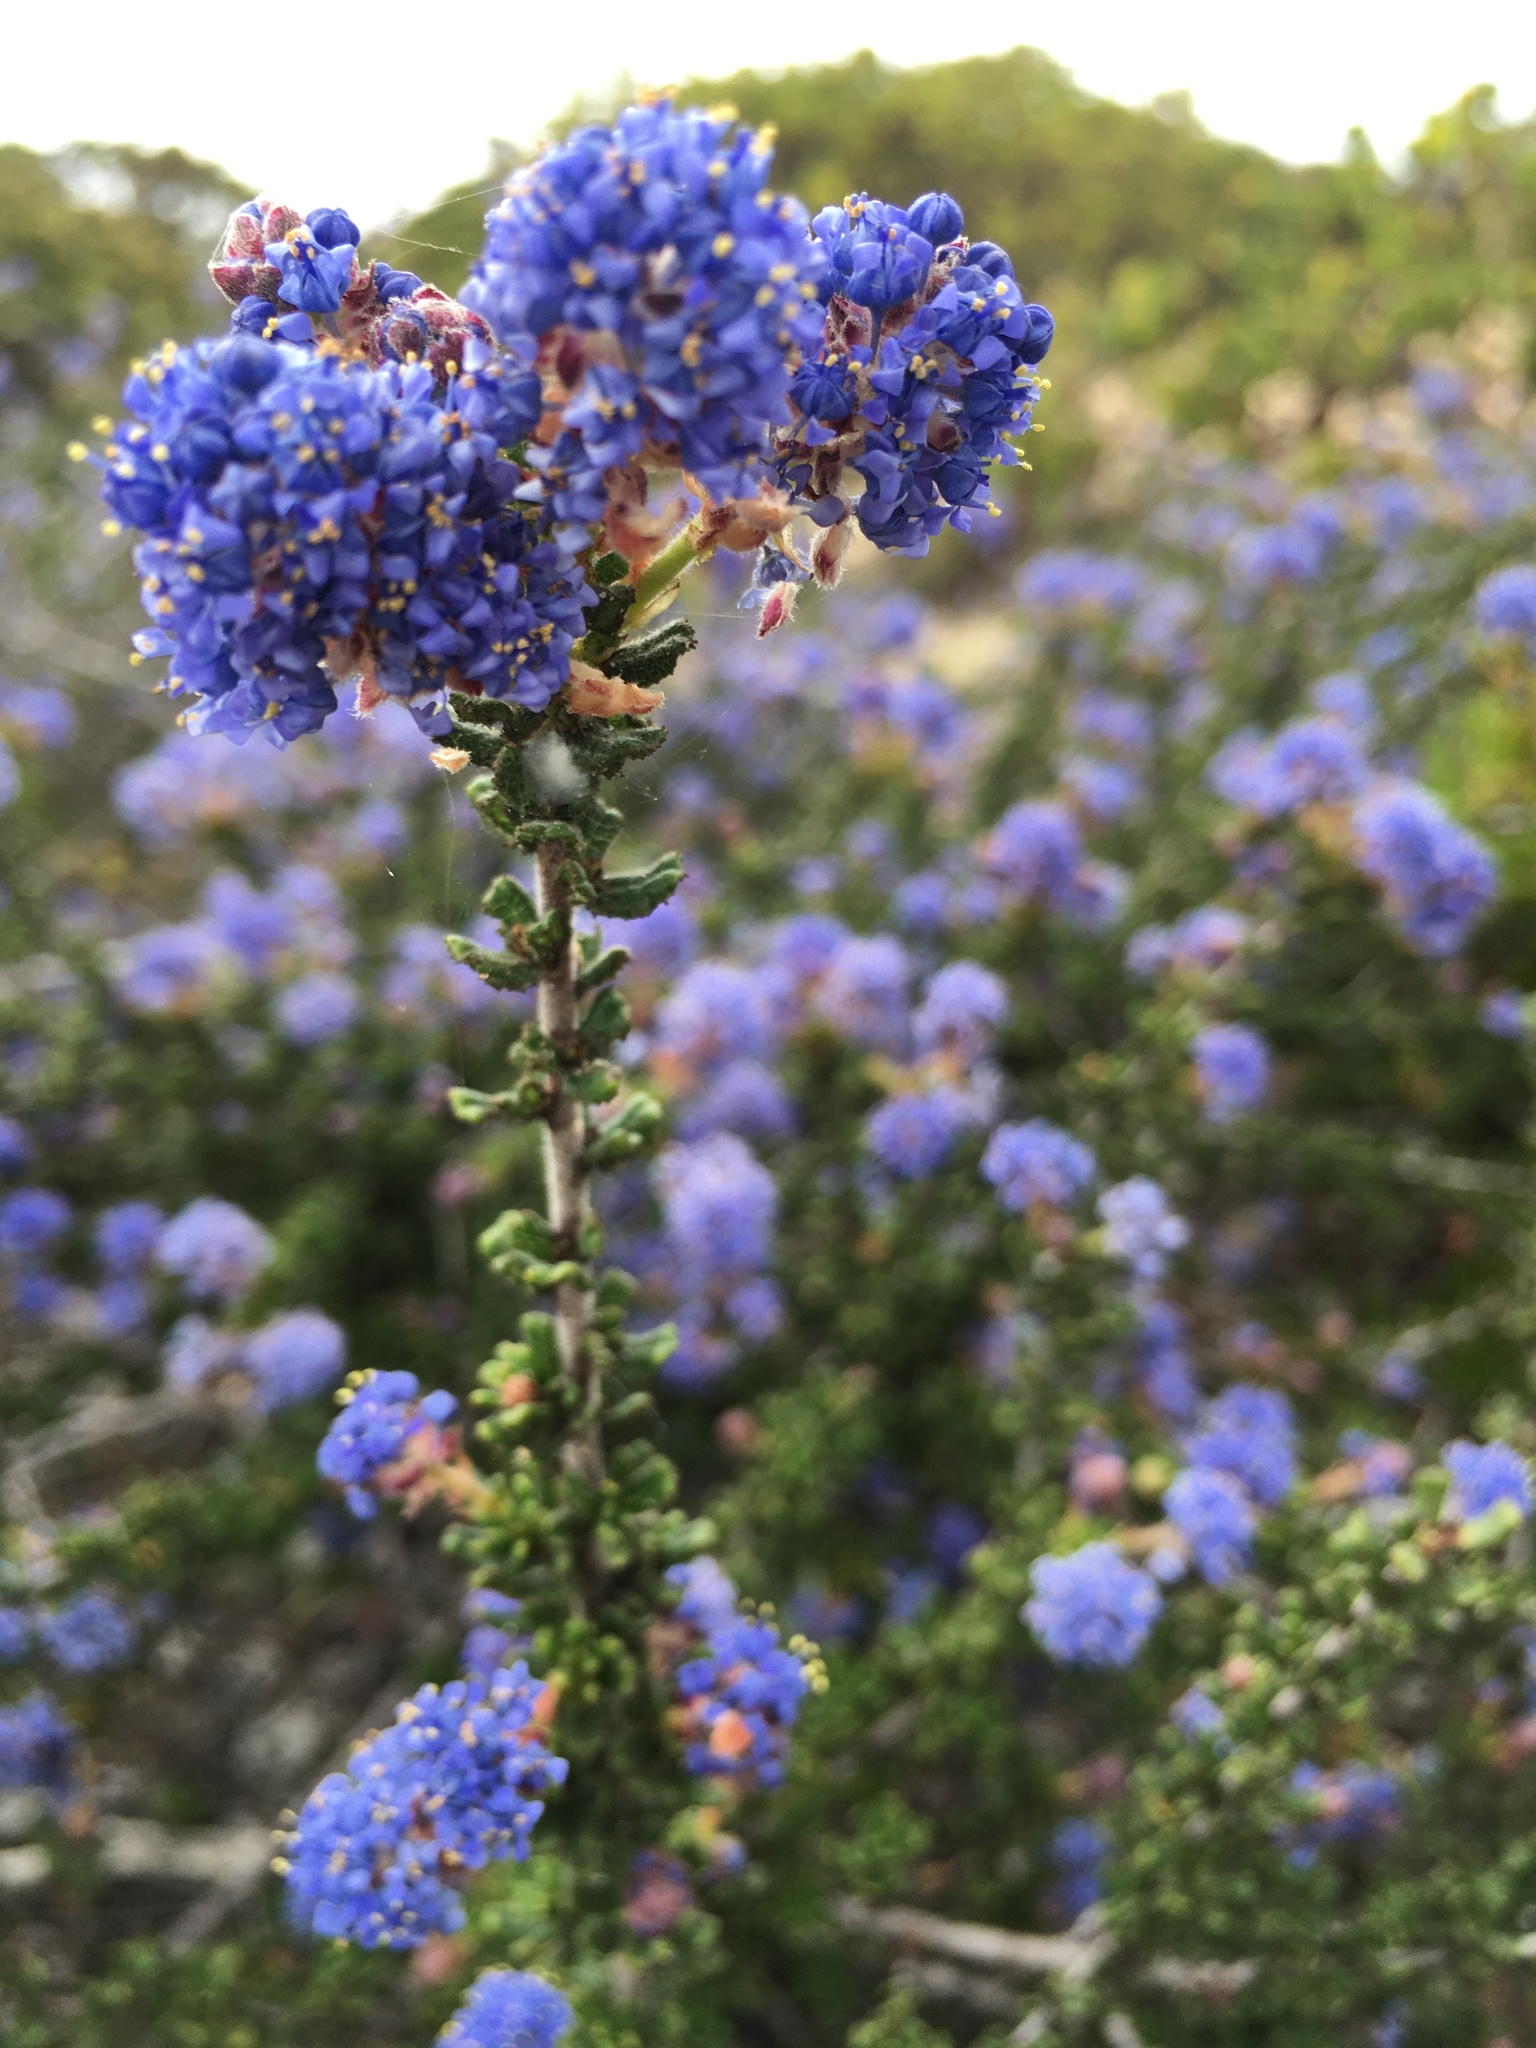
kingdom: Plantae
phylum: Tracheophyta
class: Magnoliopsida
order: Rosales
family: Rhamnaceae
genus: Ceanothus
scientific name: Ceanothus dentatus
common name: Crop-leaf ceanothus
